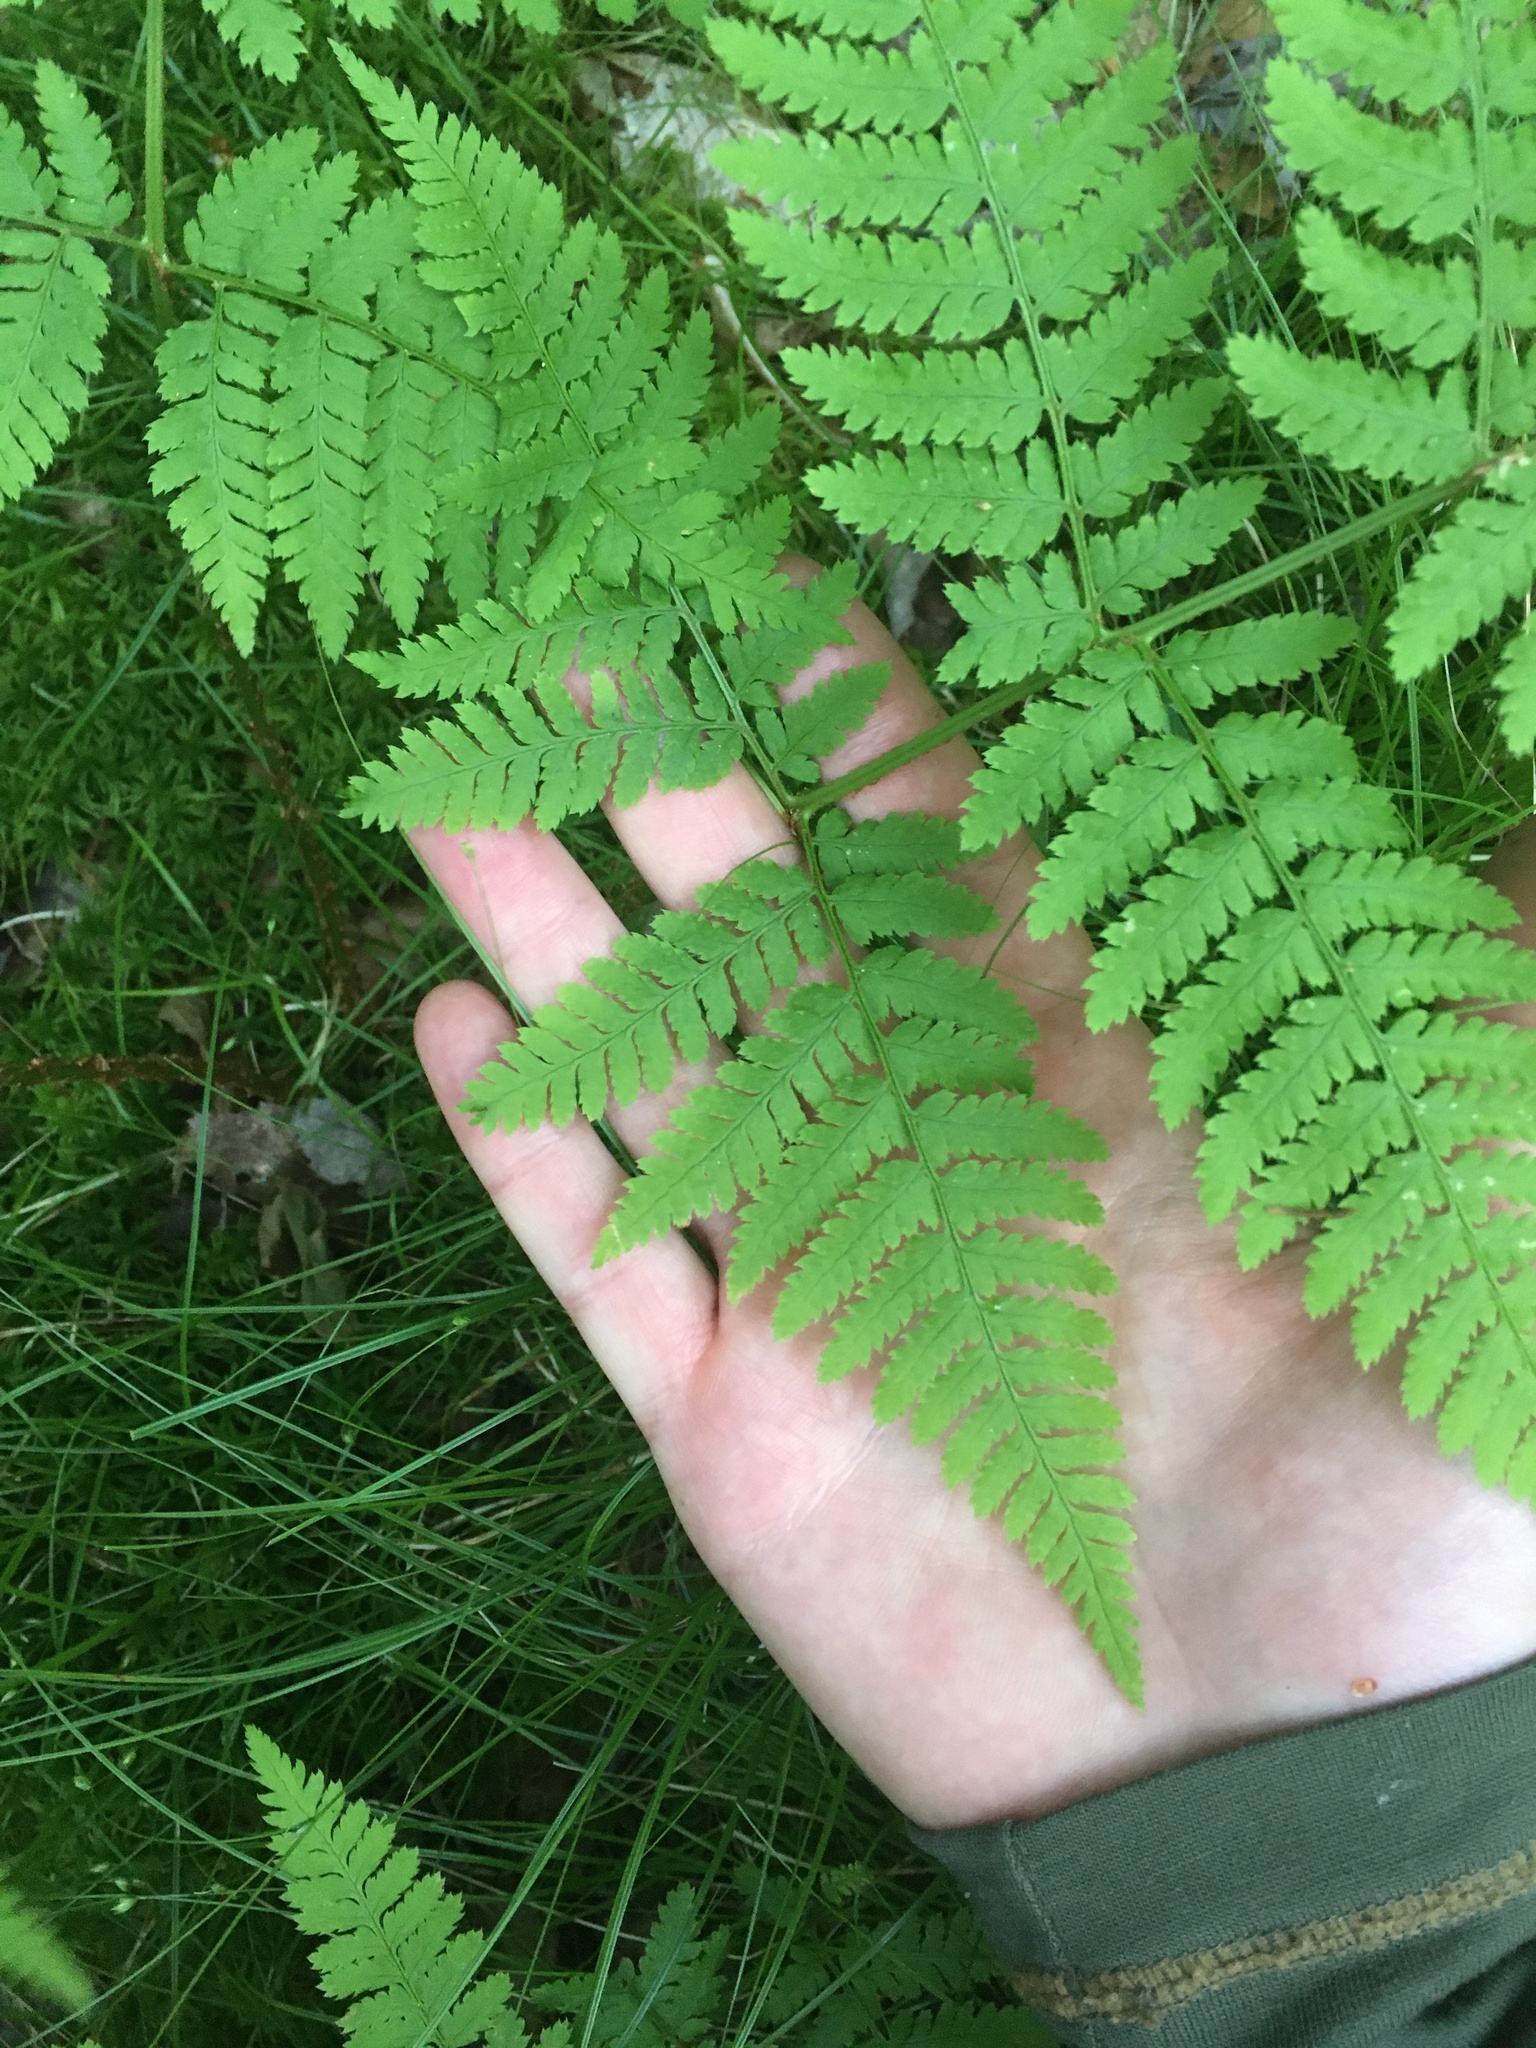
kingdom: Plantae
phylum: Tracheophyta
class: Polypodiopsida
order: Polypodiales
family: Dryopteridaceae
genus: Dryopteris
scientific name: Dryopteris campyloptera
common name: Mountain wood fern
